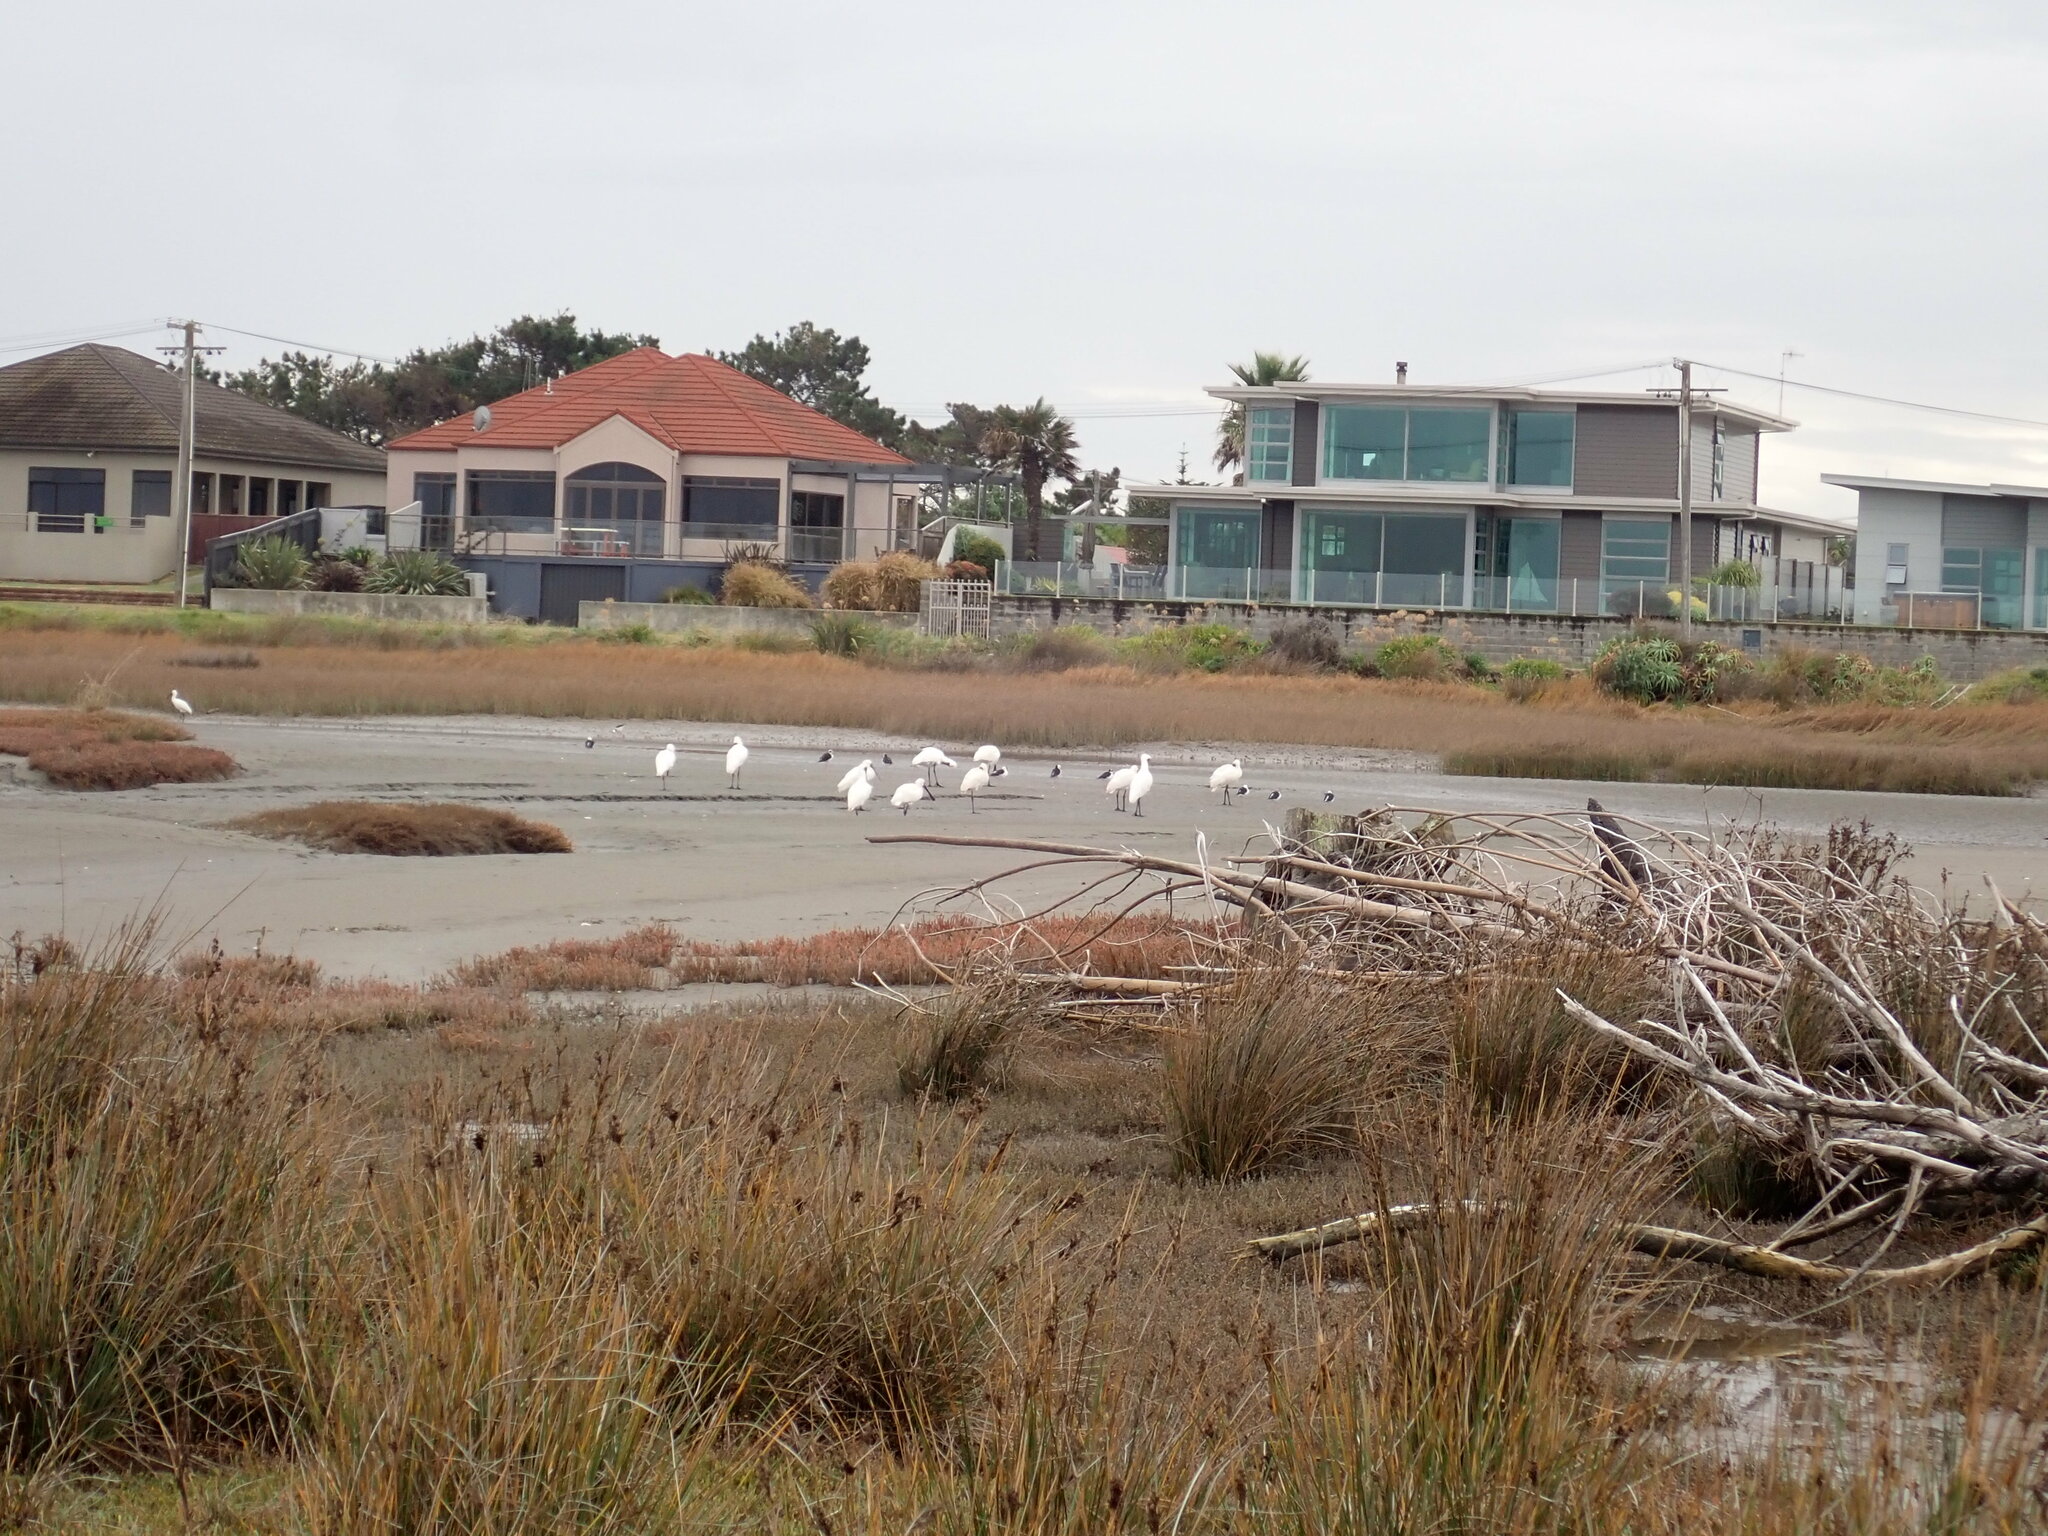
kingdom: Animalia
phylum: Chordata
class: Aves
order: Pelecaniformes
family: Threskiornithidae
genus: Platalea
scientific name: Platalea regia
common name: Royal spoonbill
